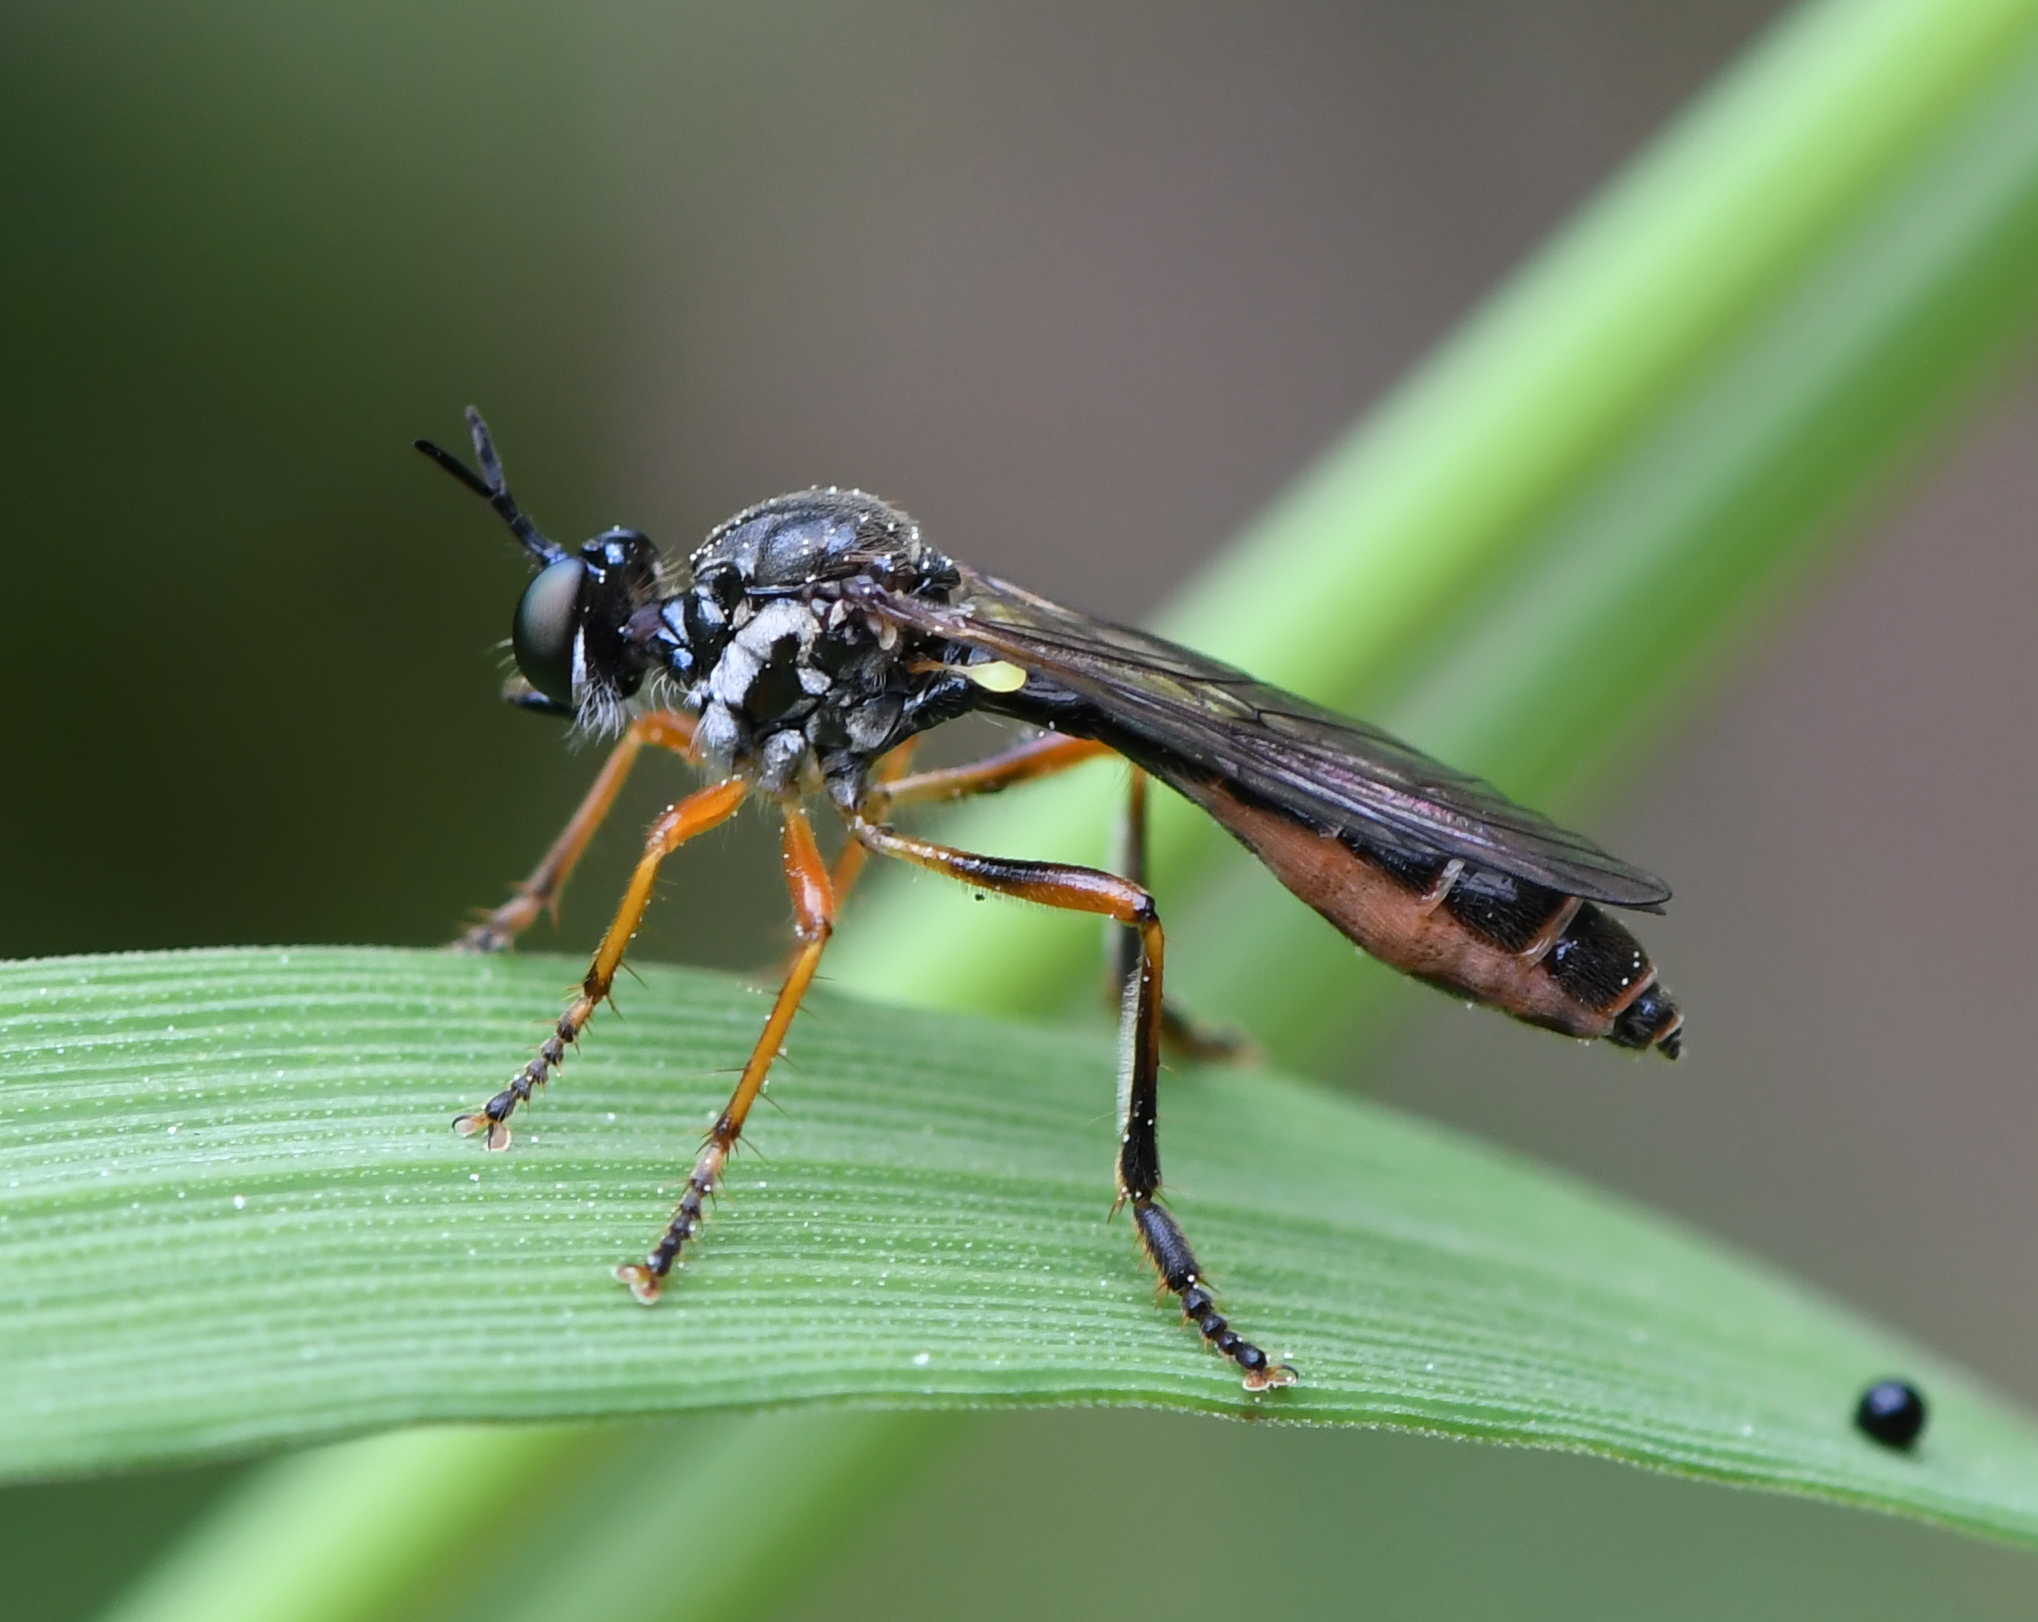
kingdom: Animalia
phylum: Arthropoda
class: Insecta
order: Diptera
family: Asilidae
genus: Dioctria
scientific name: Dioctria hyalipennis
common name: Stripe-legged robberfly
